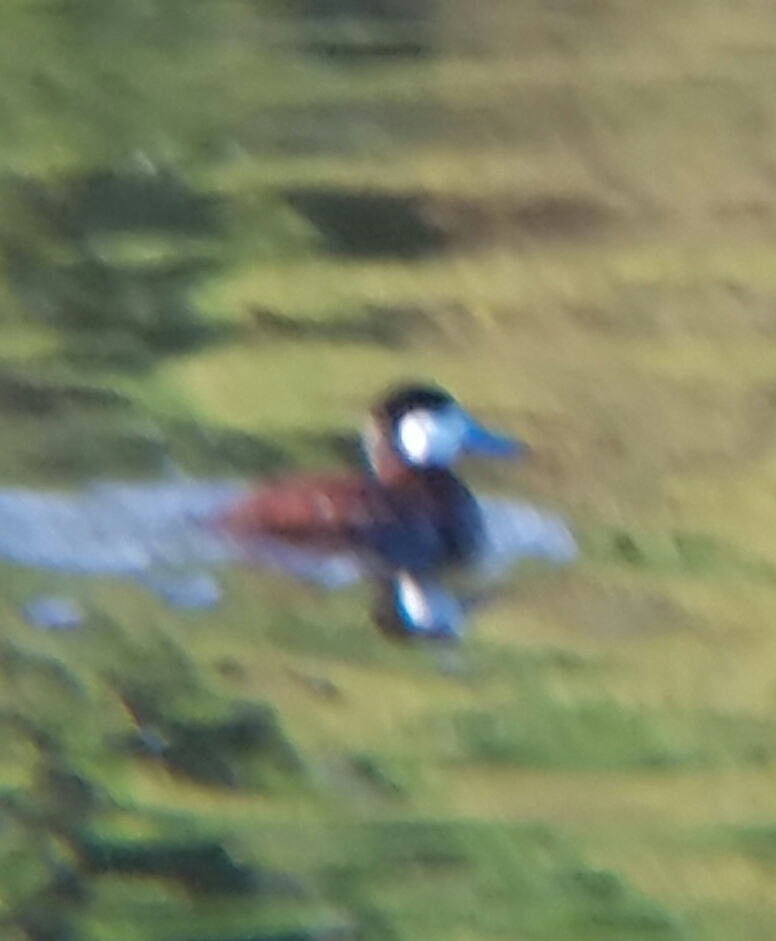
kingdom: Animalia
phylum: Chordata
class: Aves
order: Anseriformes
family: Anatidae
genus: Oxyura
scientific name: Oxyura jamaicensis
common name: Ruddy duck
